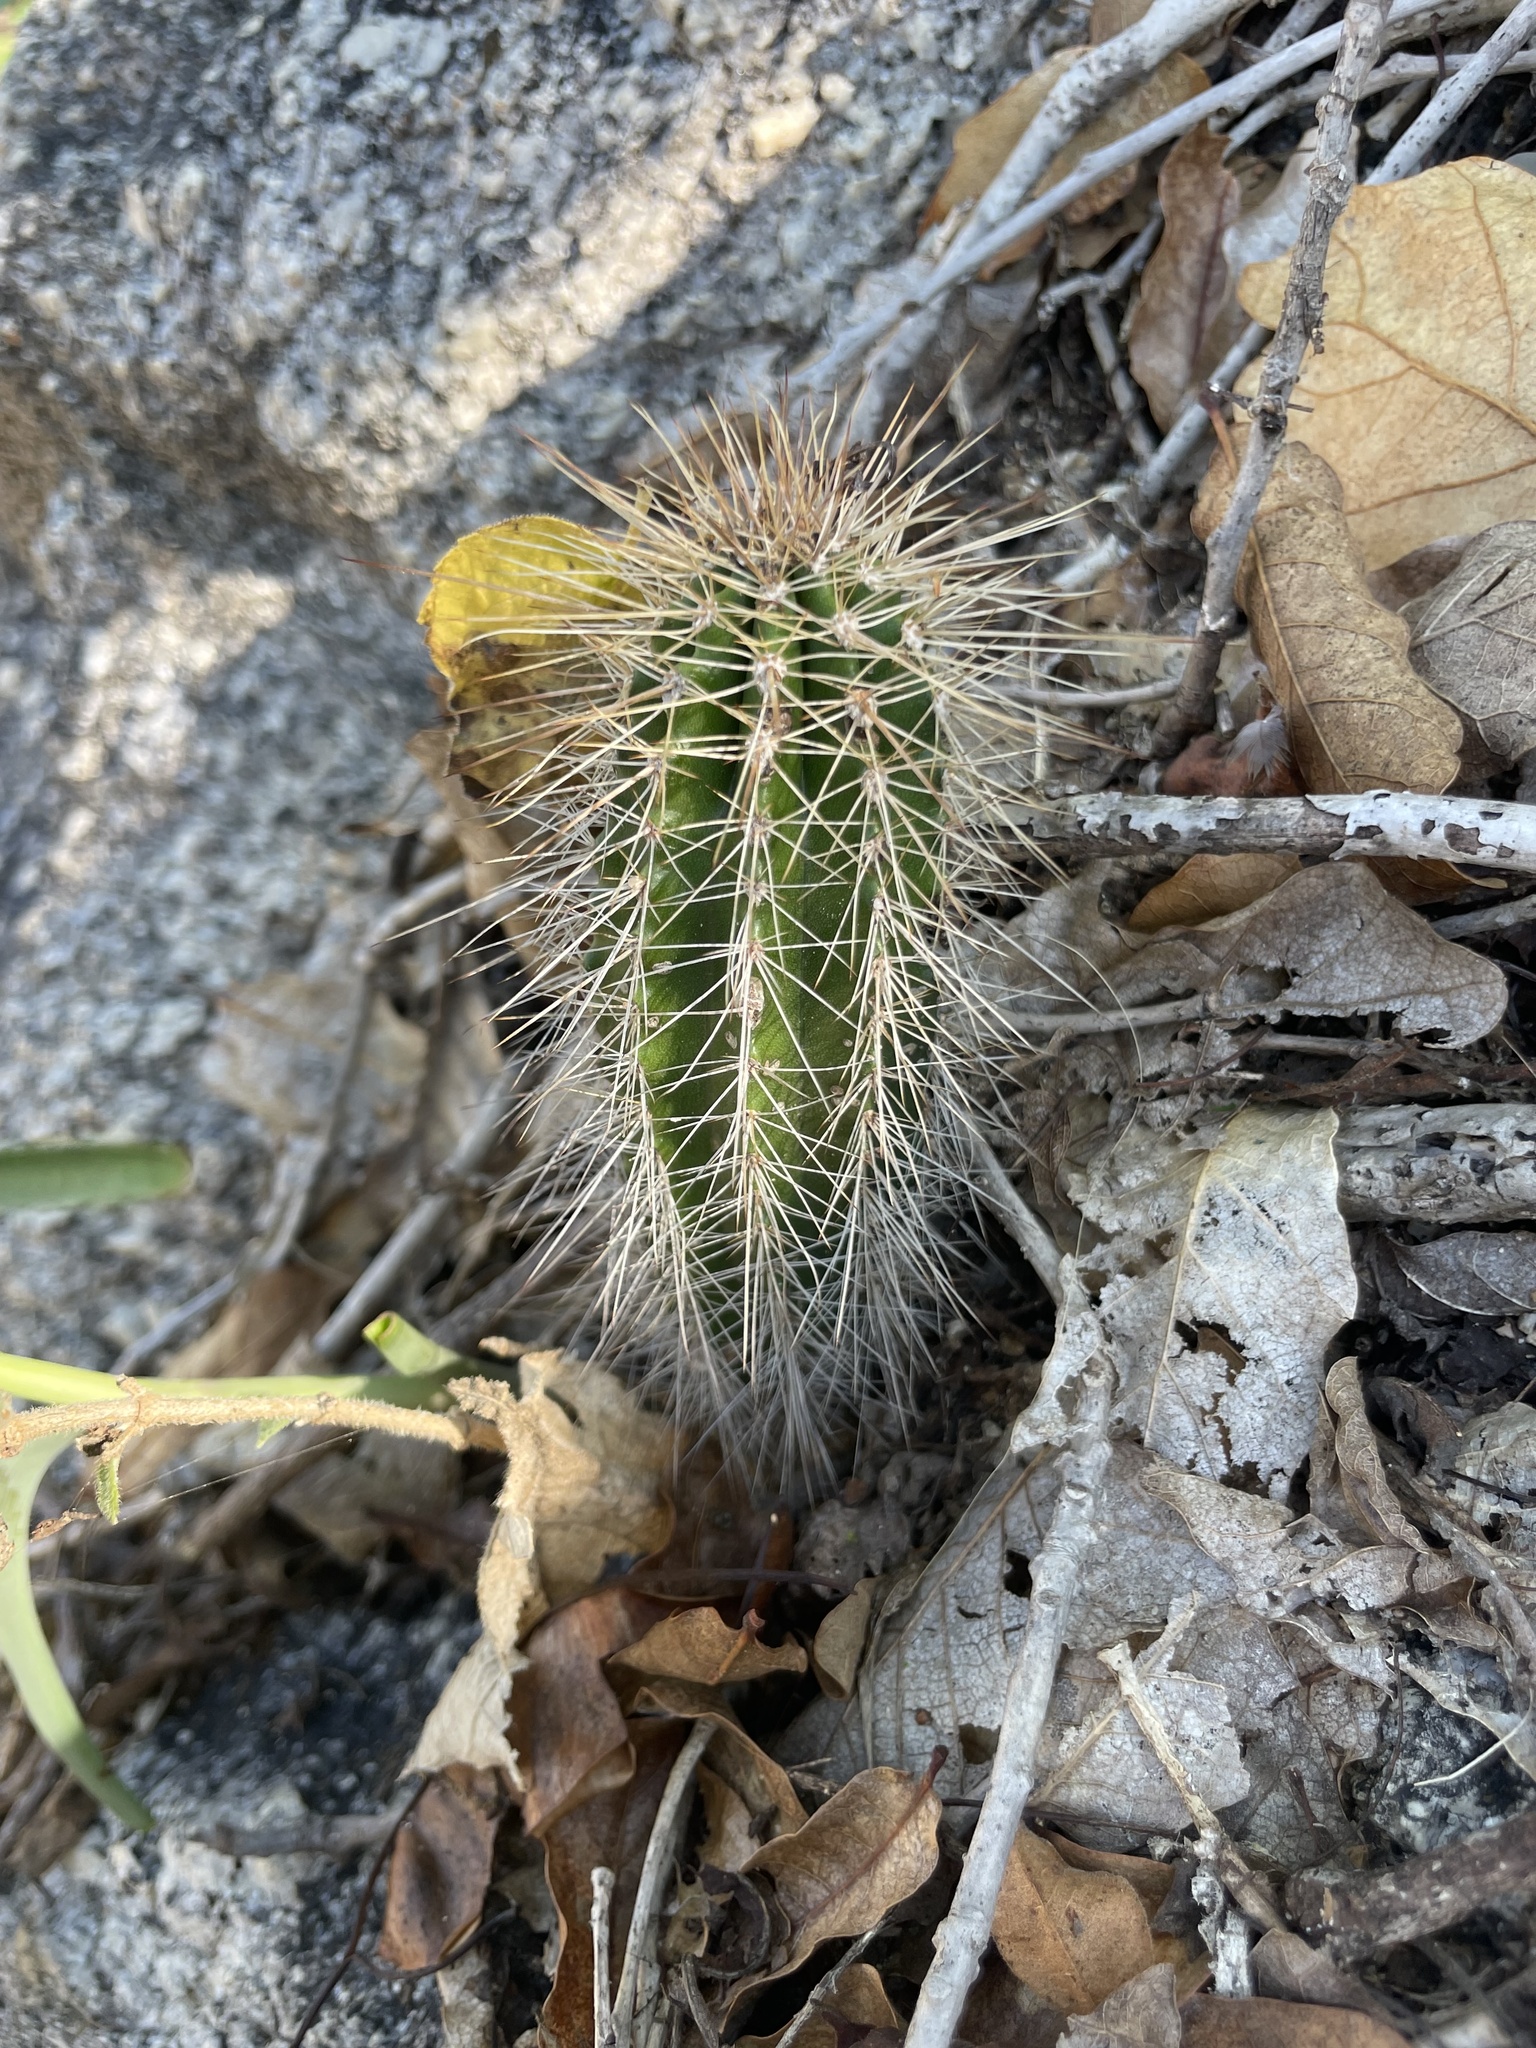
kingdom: Plantae
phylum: Tracheophyta
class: Magnoliopsida
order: Caryophyllales
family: Cactaceae
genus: Pachycereus
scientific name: Pachycereus pecten-aboriginum
